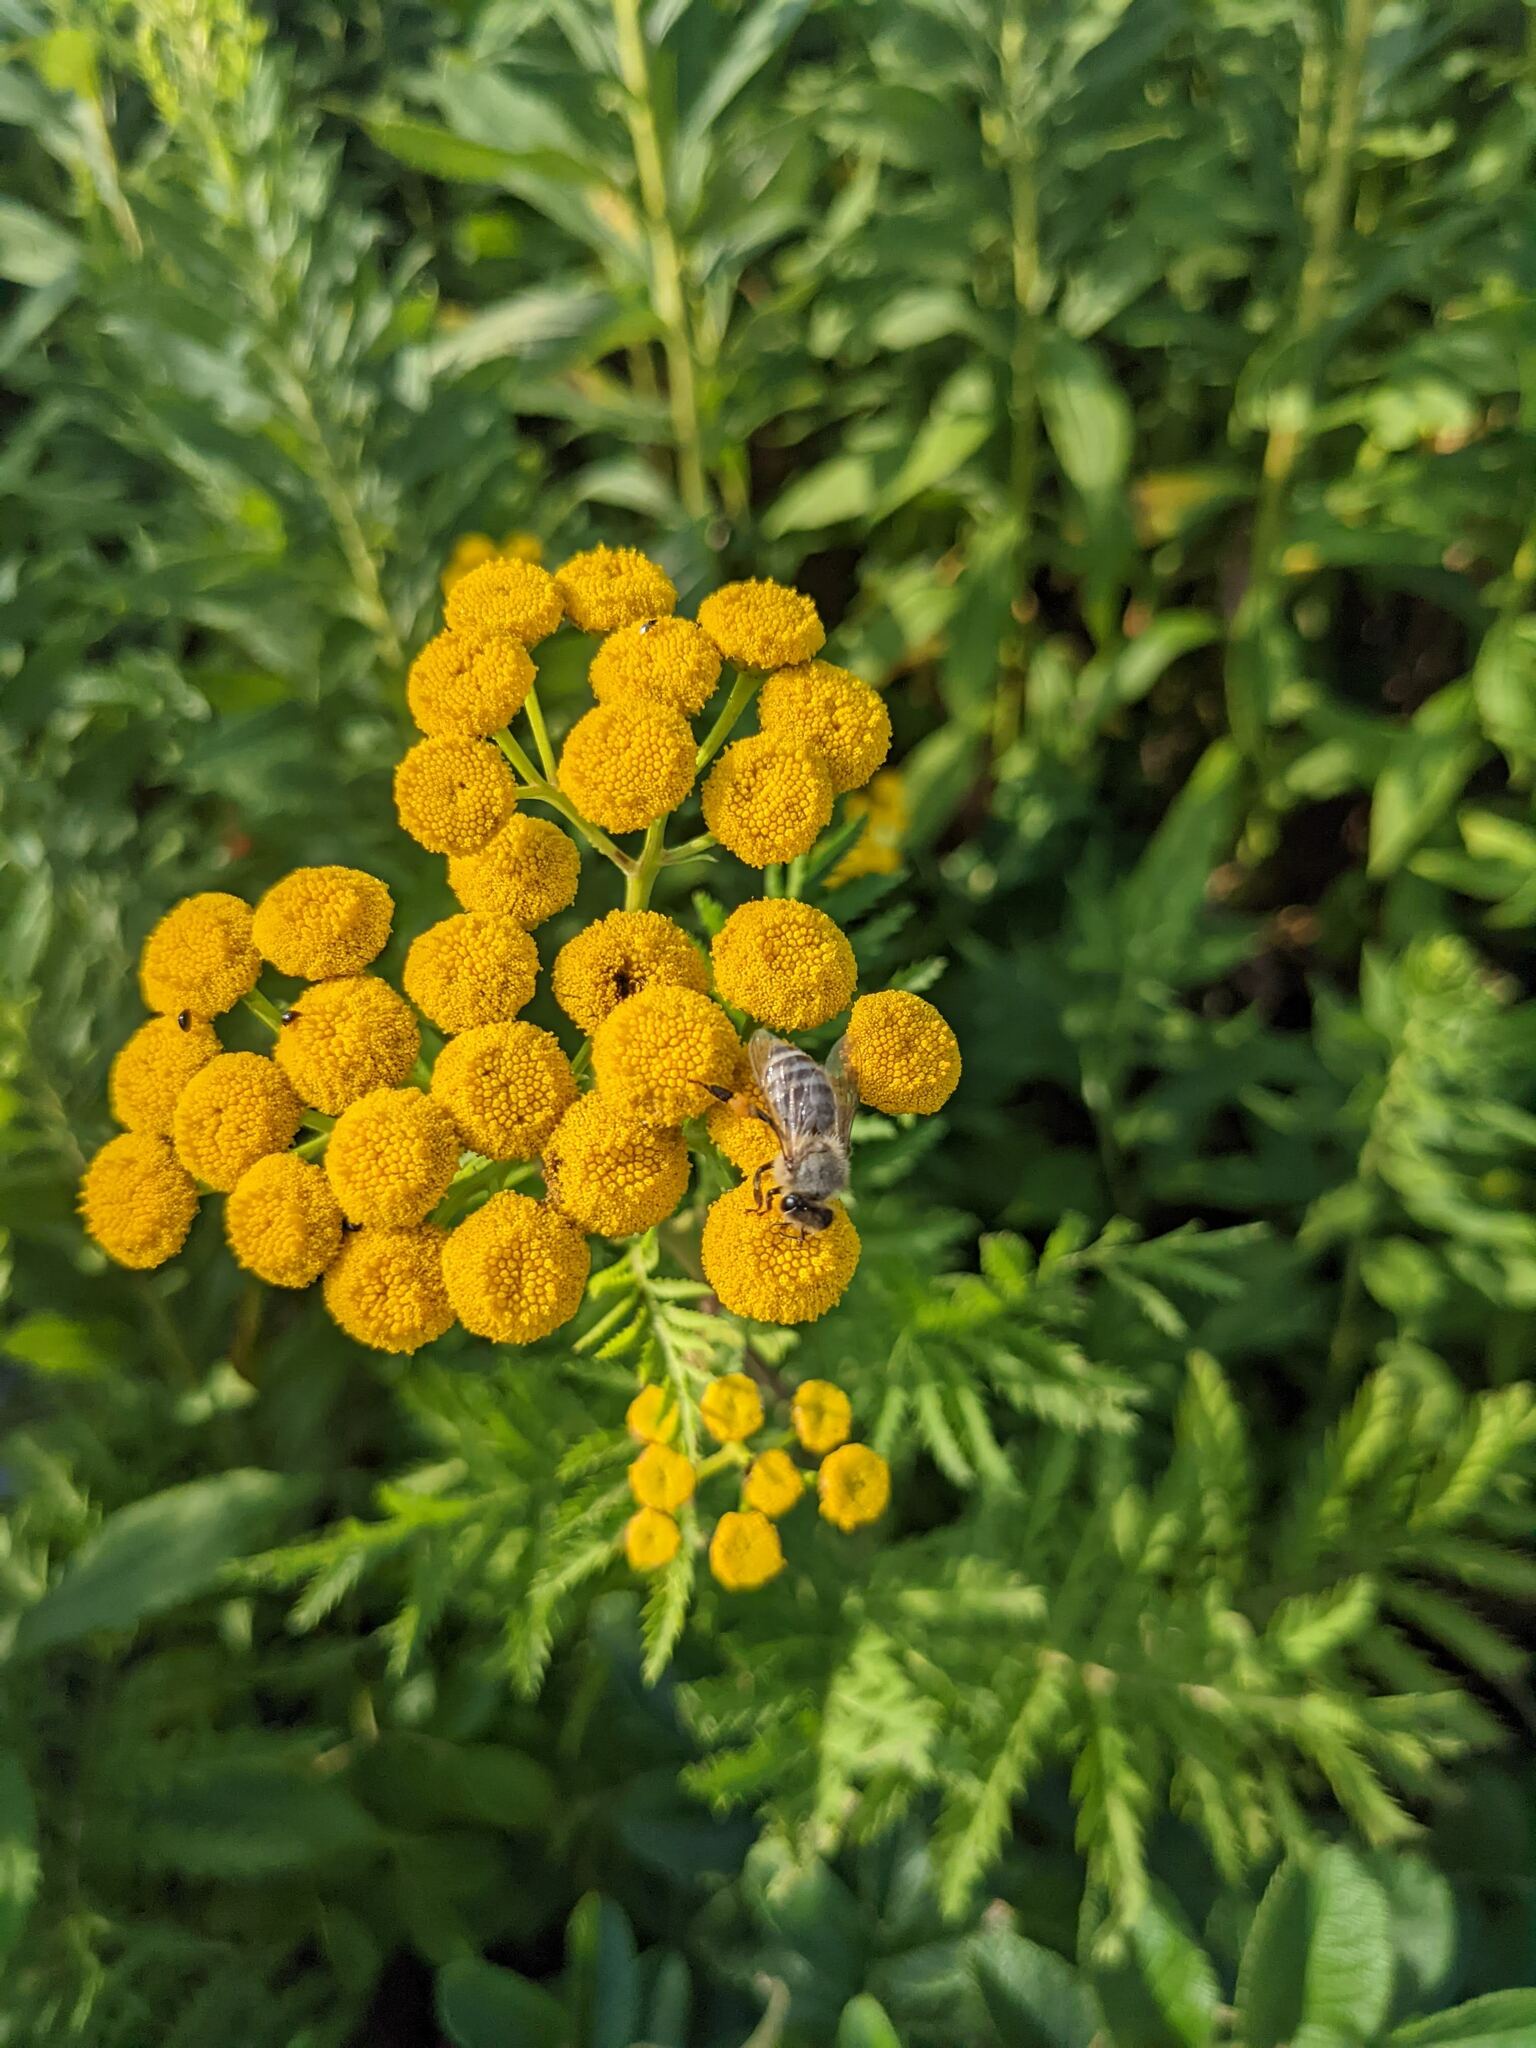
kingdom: Animalia
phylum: Arthropoda
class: Insecta
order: Hymenoptera
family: Apidae
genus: Apis
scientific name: Apis mellifera
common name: Honey bee
